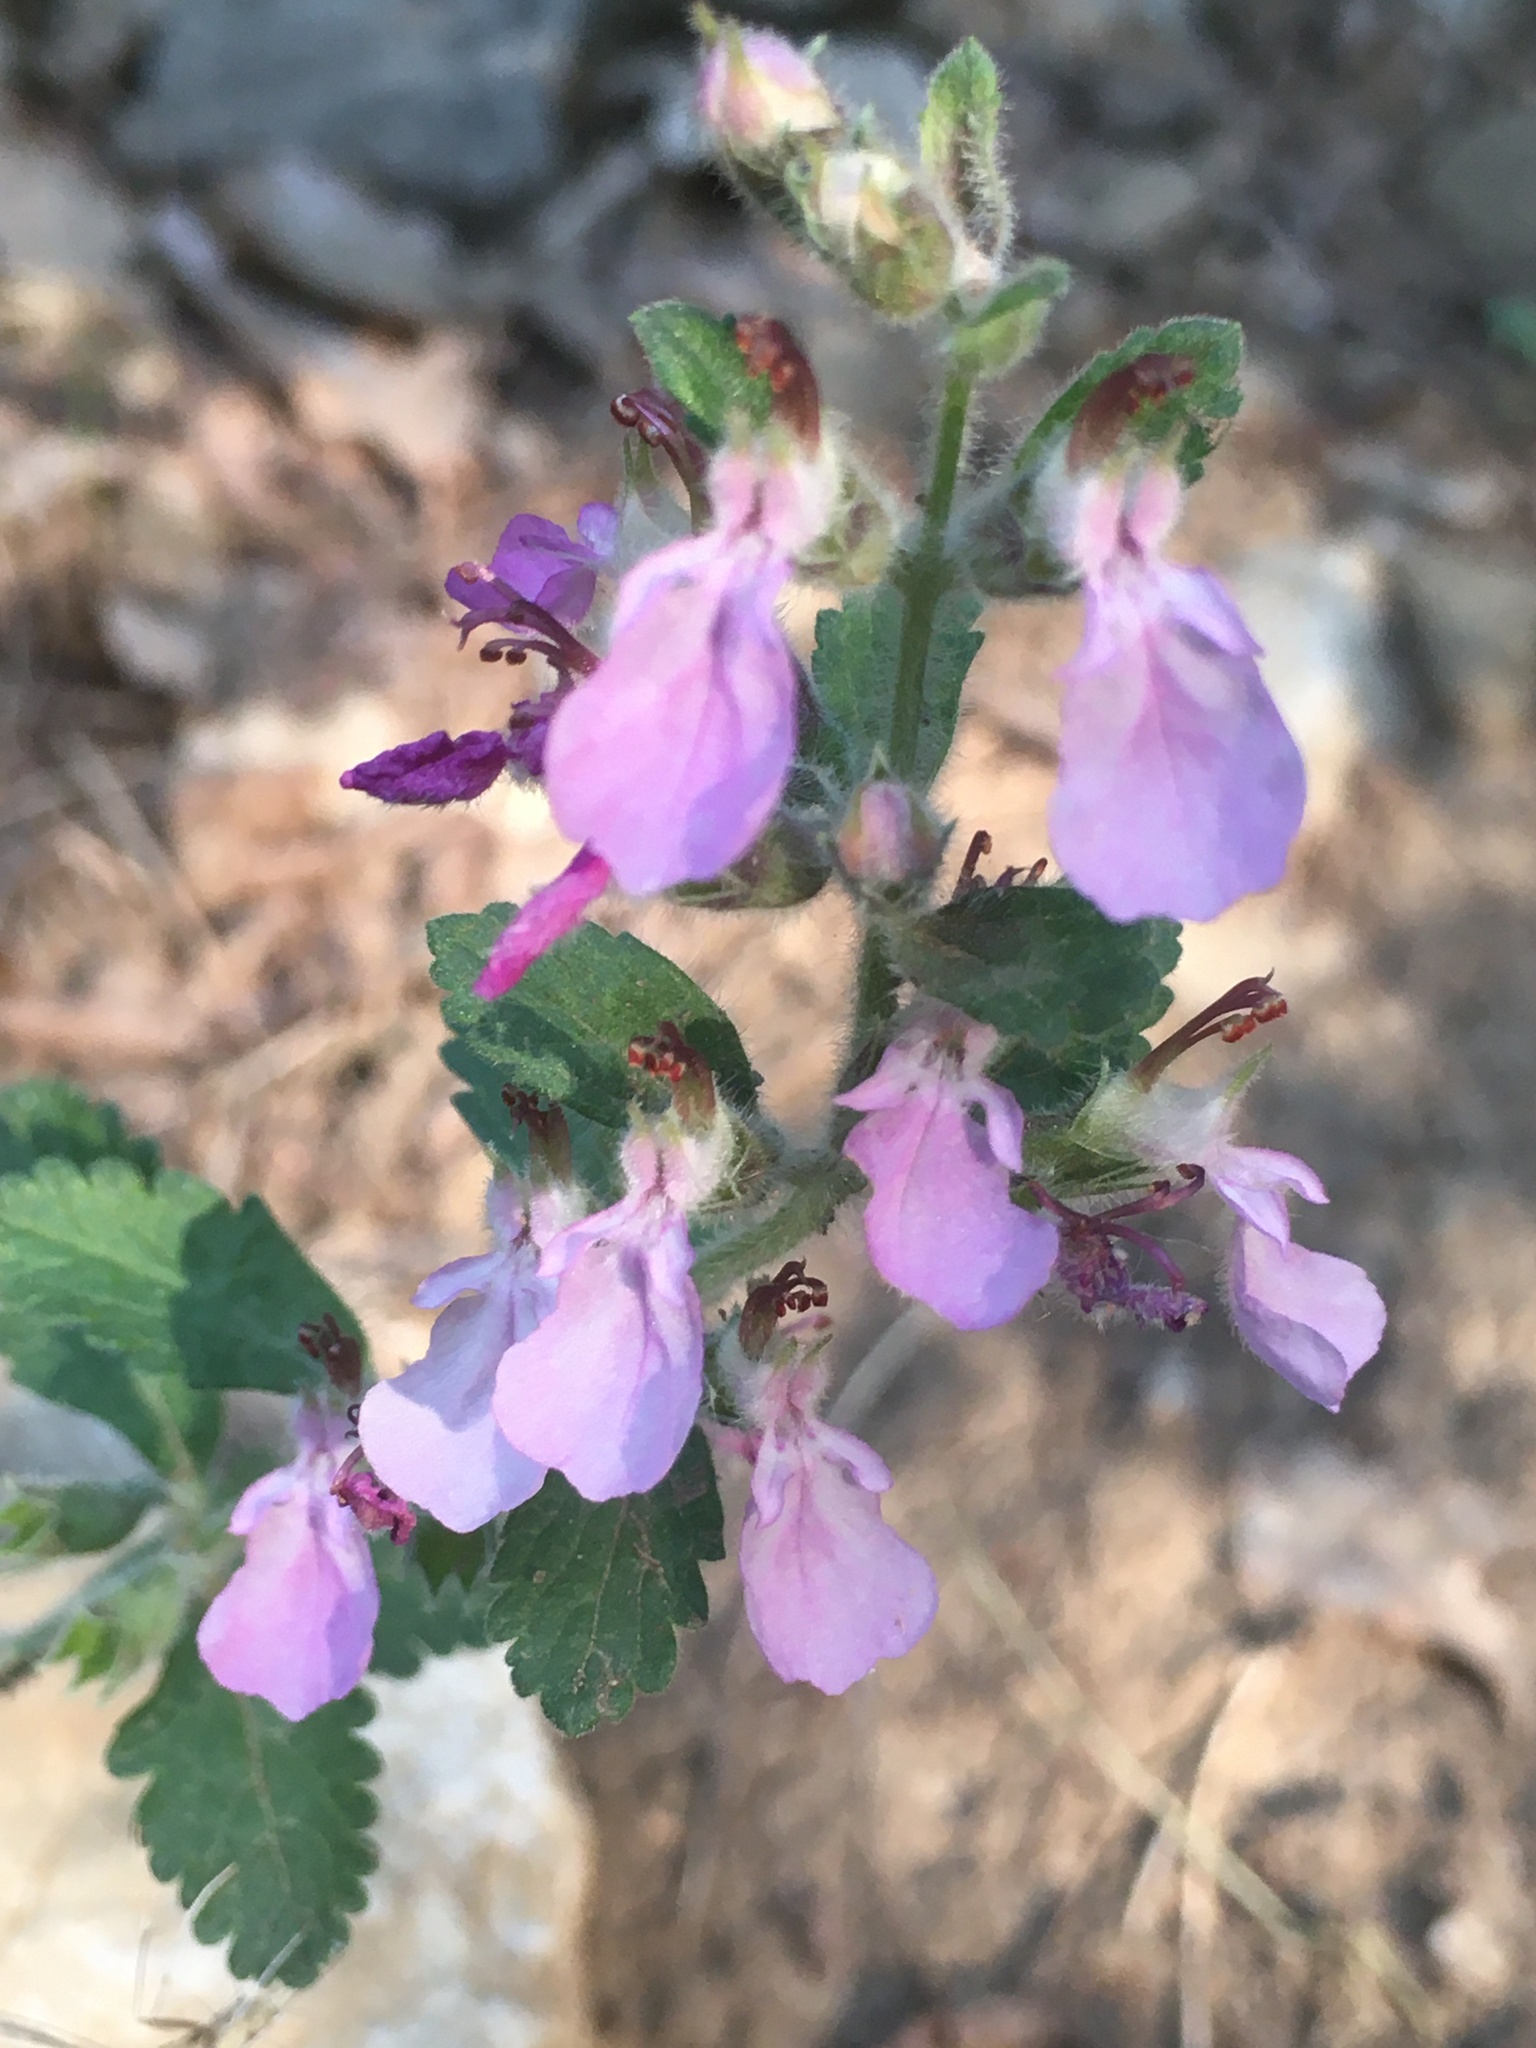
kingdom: Plantae
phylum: Tracheophyta
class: Magnoliopsida
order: Lamiales
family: Lamiaceae
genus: Teucrium
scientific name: Teucrium chamaedrys
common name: Wall germander
